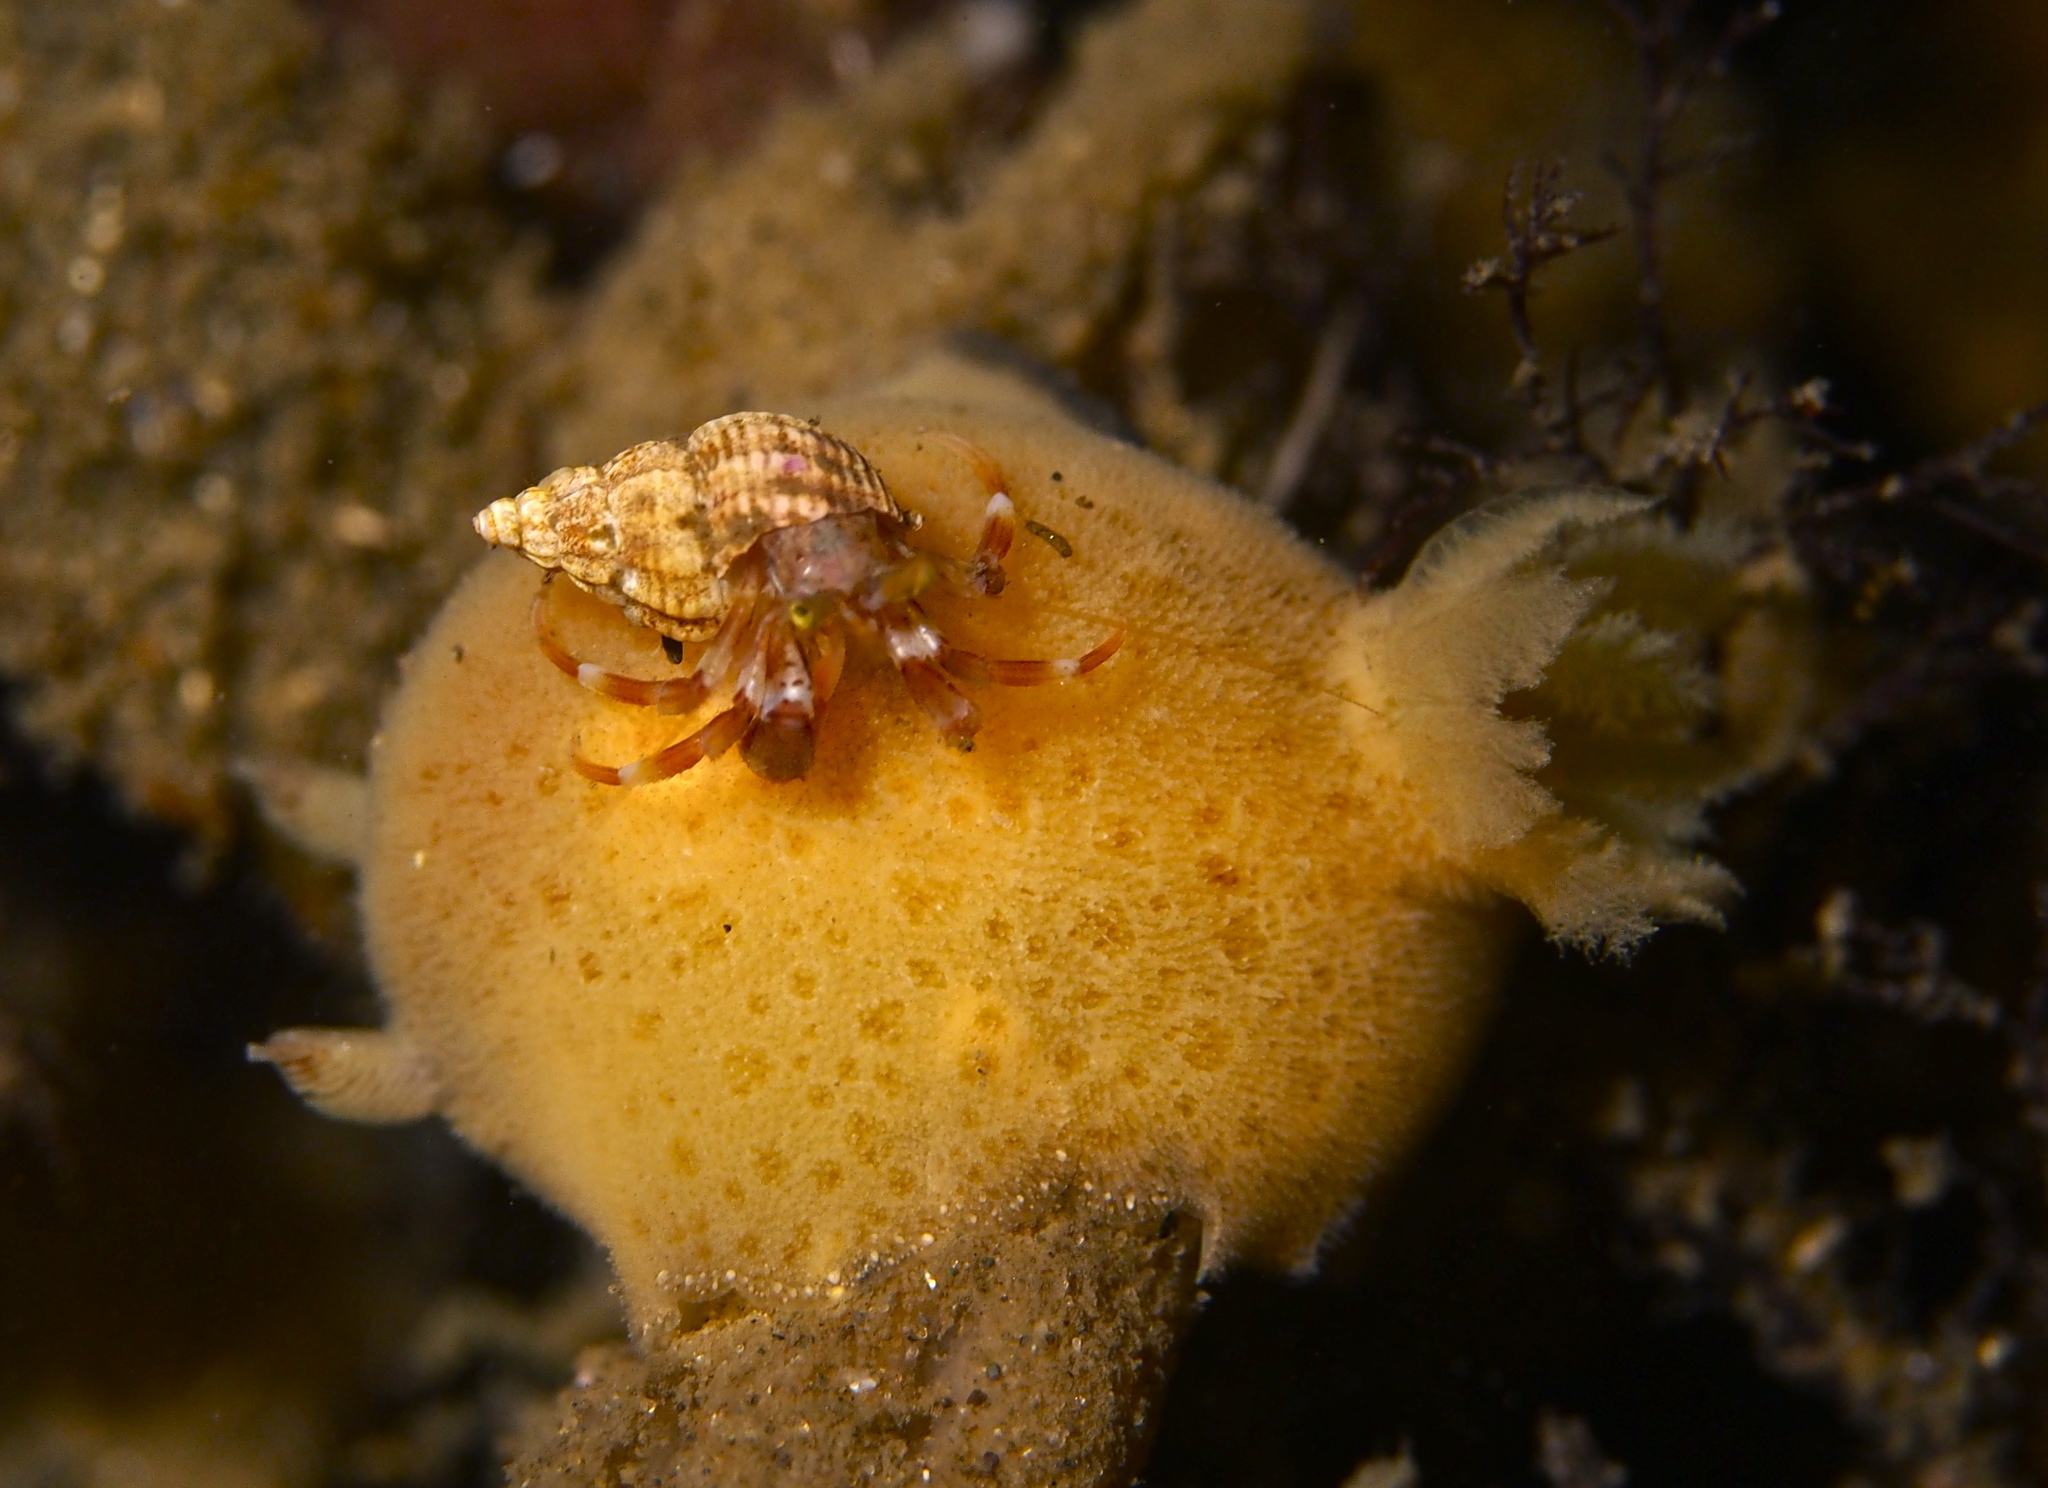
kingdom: Animalia
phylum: Mollusca
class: Gastropoda
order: Nudibranchia
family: Discodorididae
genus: Jorunna
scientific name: Jorunna tomentosa
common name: Grey sea slug
